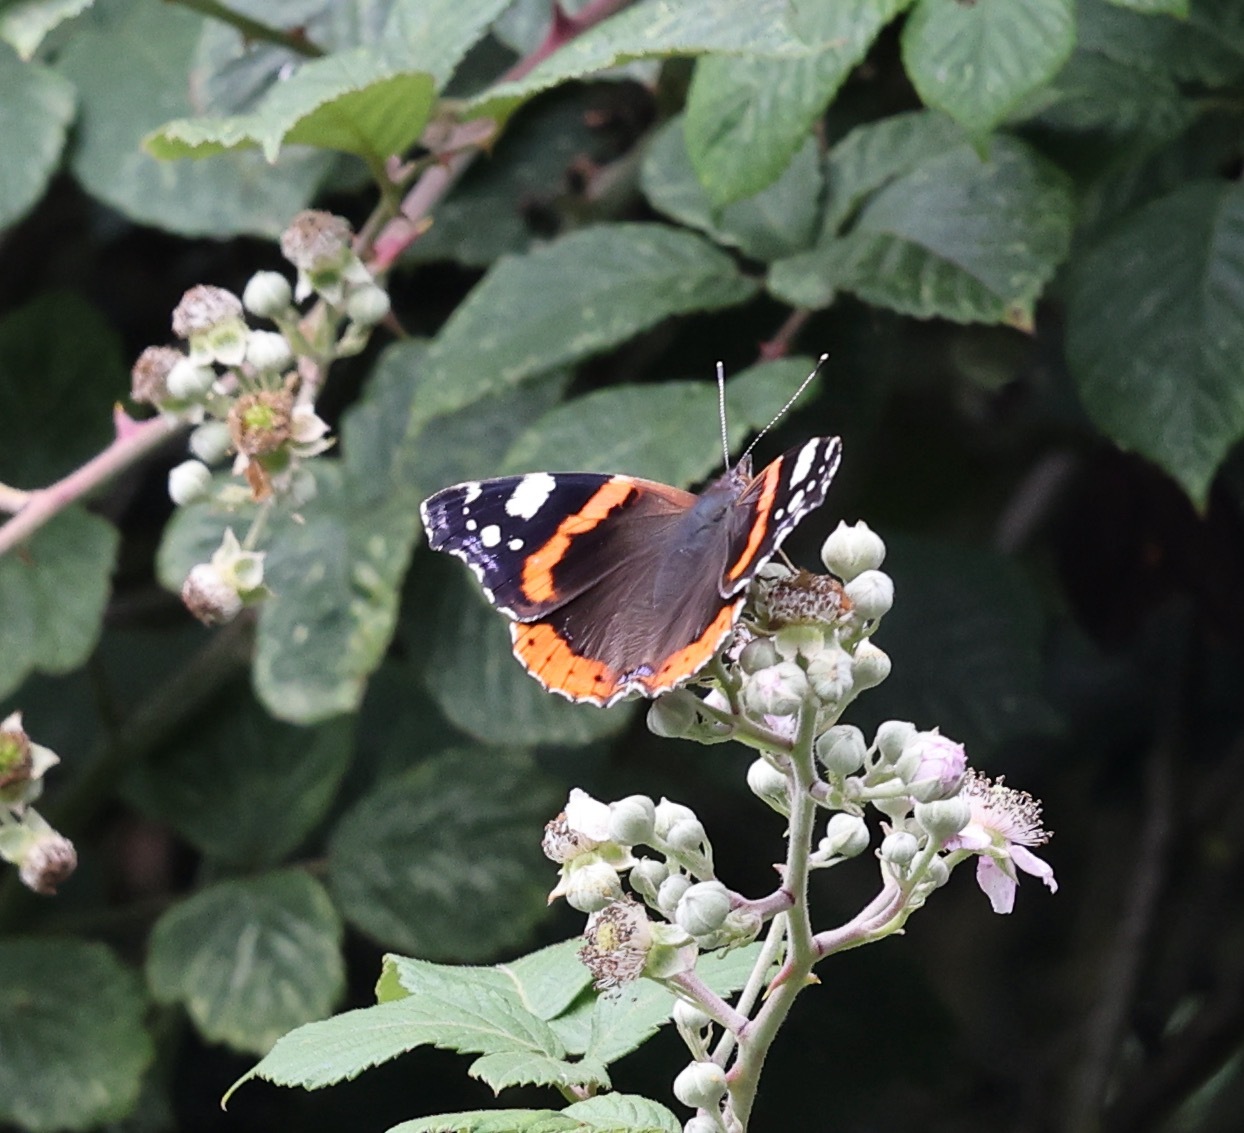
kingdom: Animalia
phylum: Arthropoda
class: Insecta
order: Lepidoptera
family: Nymphalidae
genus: Vanessa
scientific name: Vanessa atalanta
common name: Red admiral
